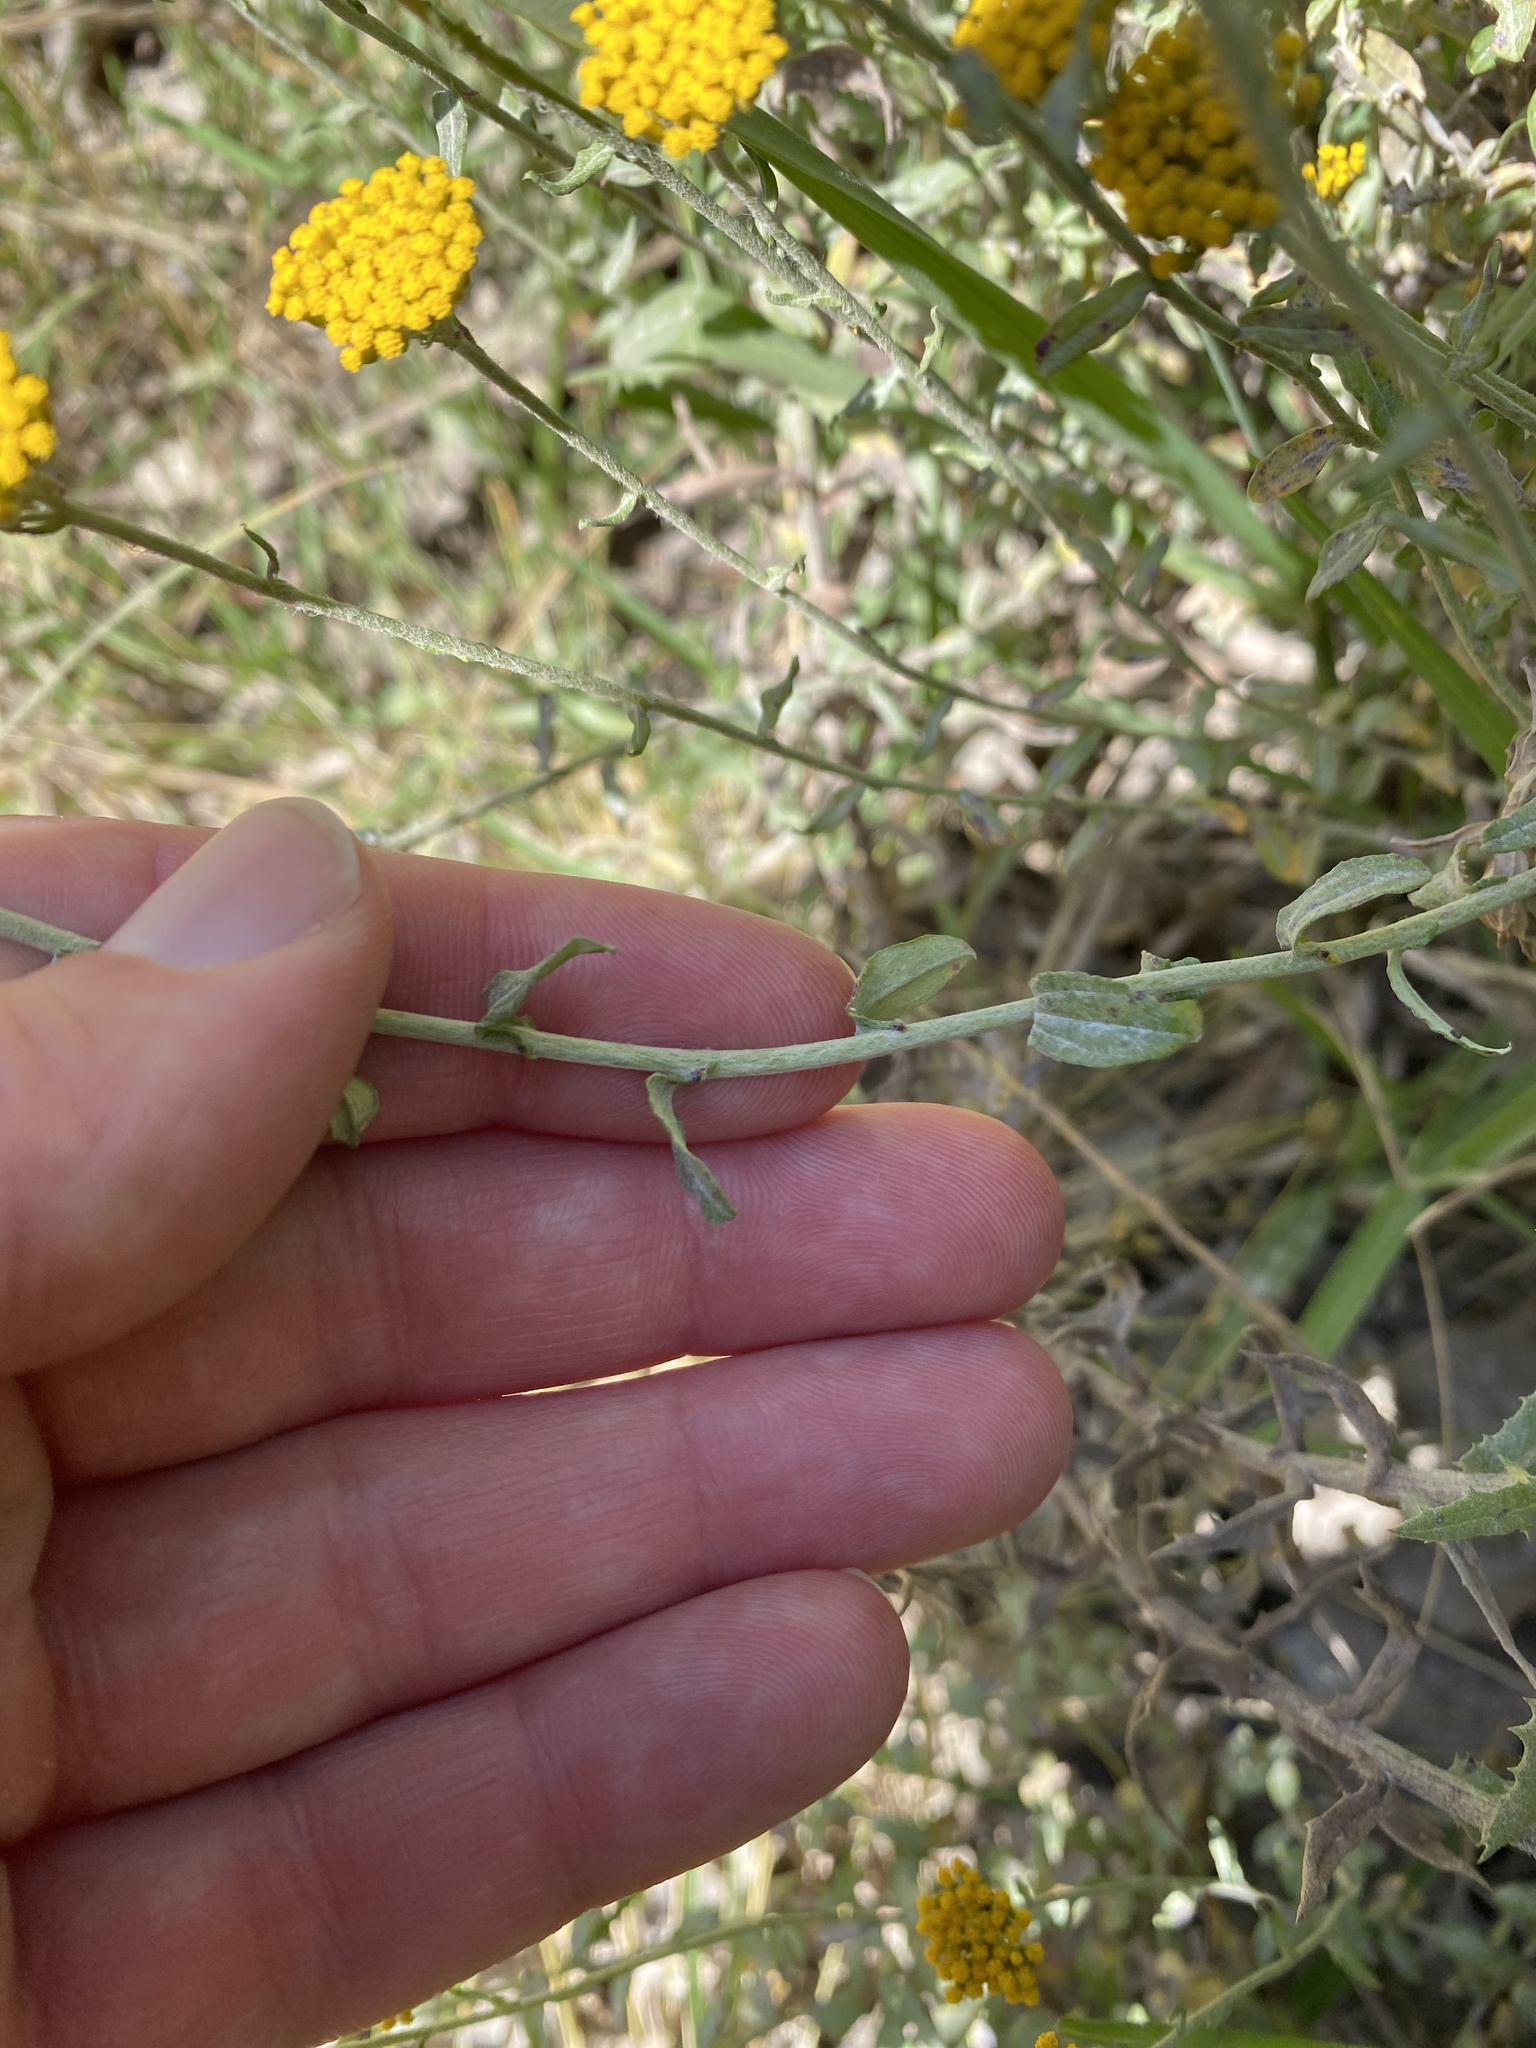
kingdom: Plantae
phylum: Tracheophyta
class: Magnoliopsida
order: Asterales
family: Asteraceae
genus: Helichrysum
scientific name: Helichrysum cymosum
